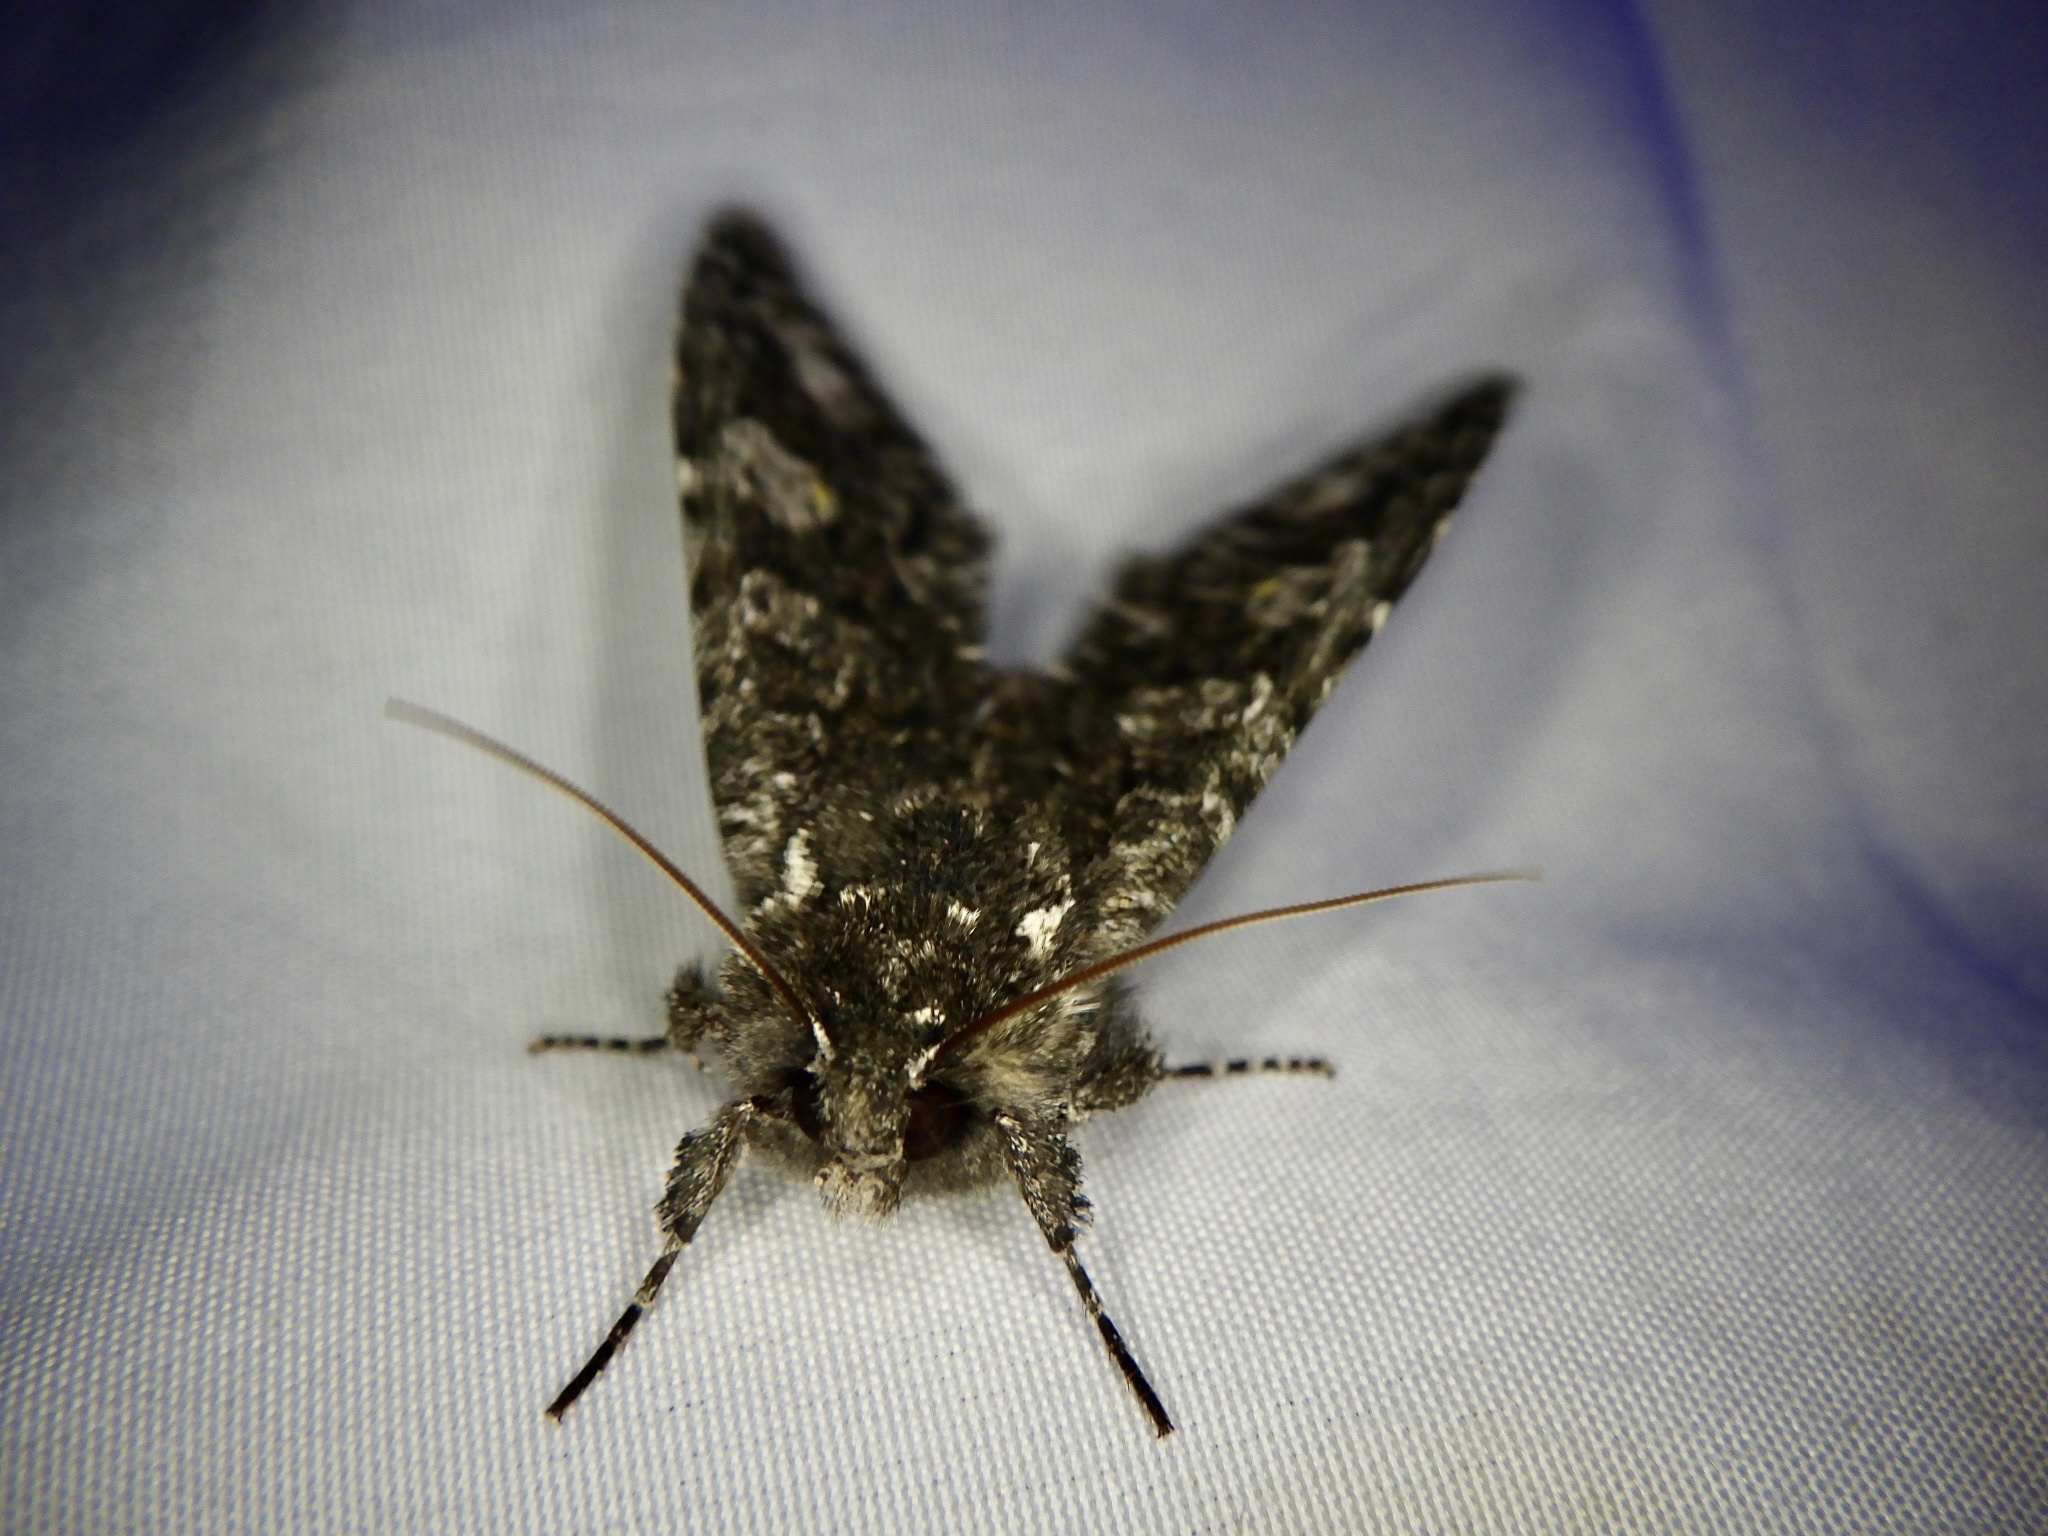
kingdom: Animalia
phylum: Arthropoda
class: Insecta
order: Lepidoptera
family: Noctuidae
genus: Belosticta
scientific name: Belosticta funesta
